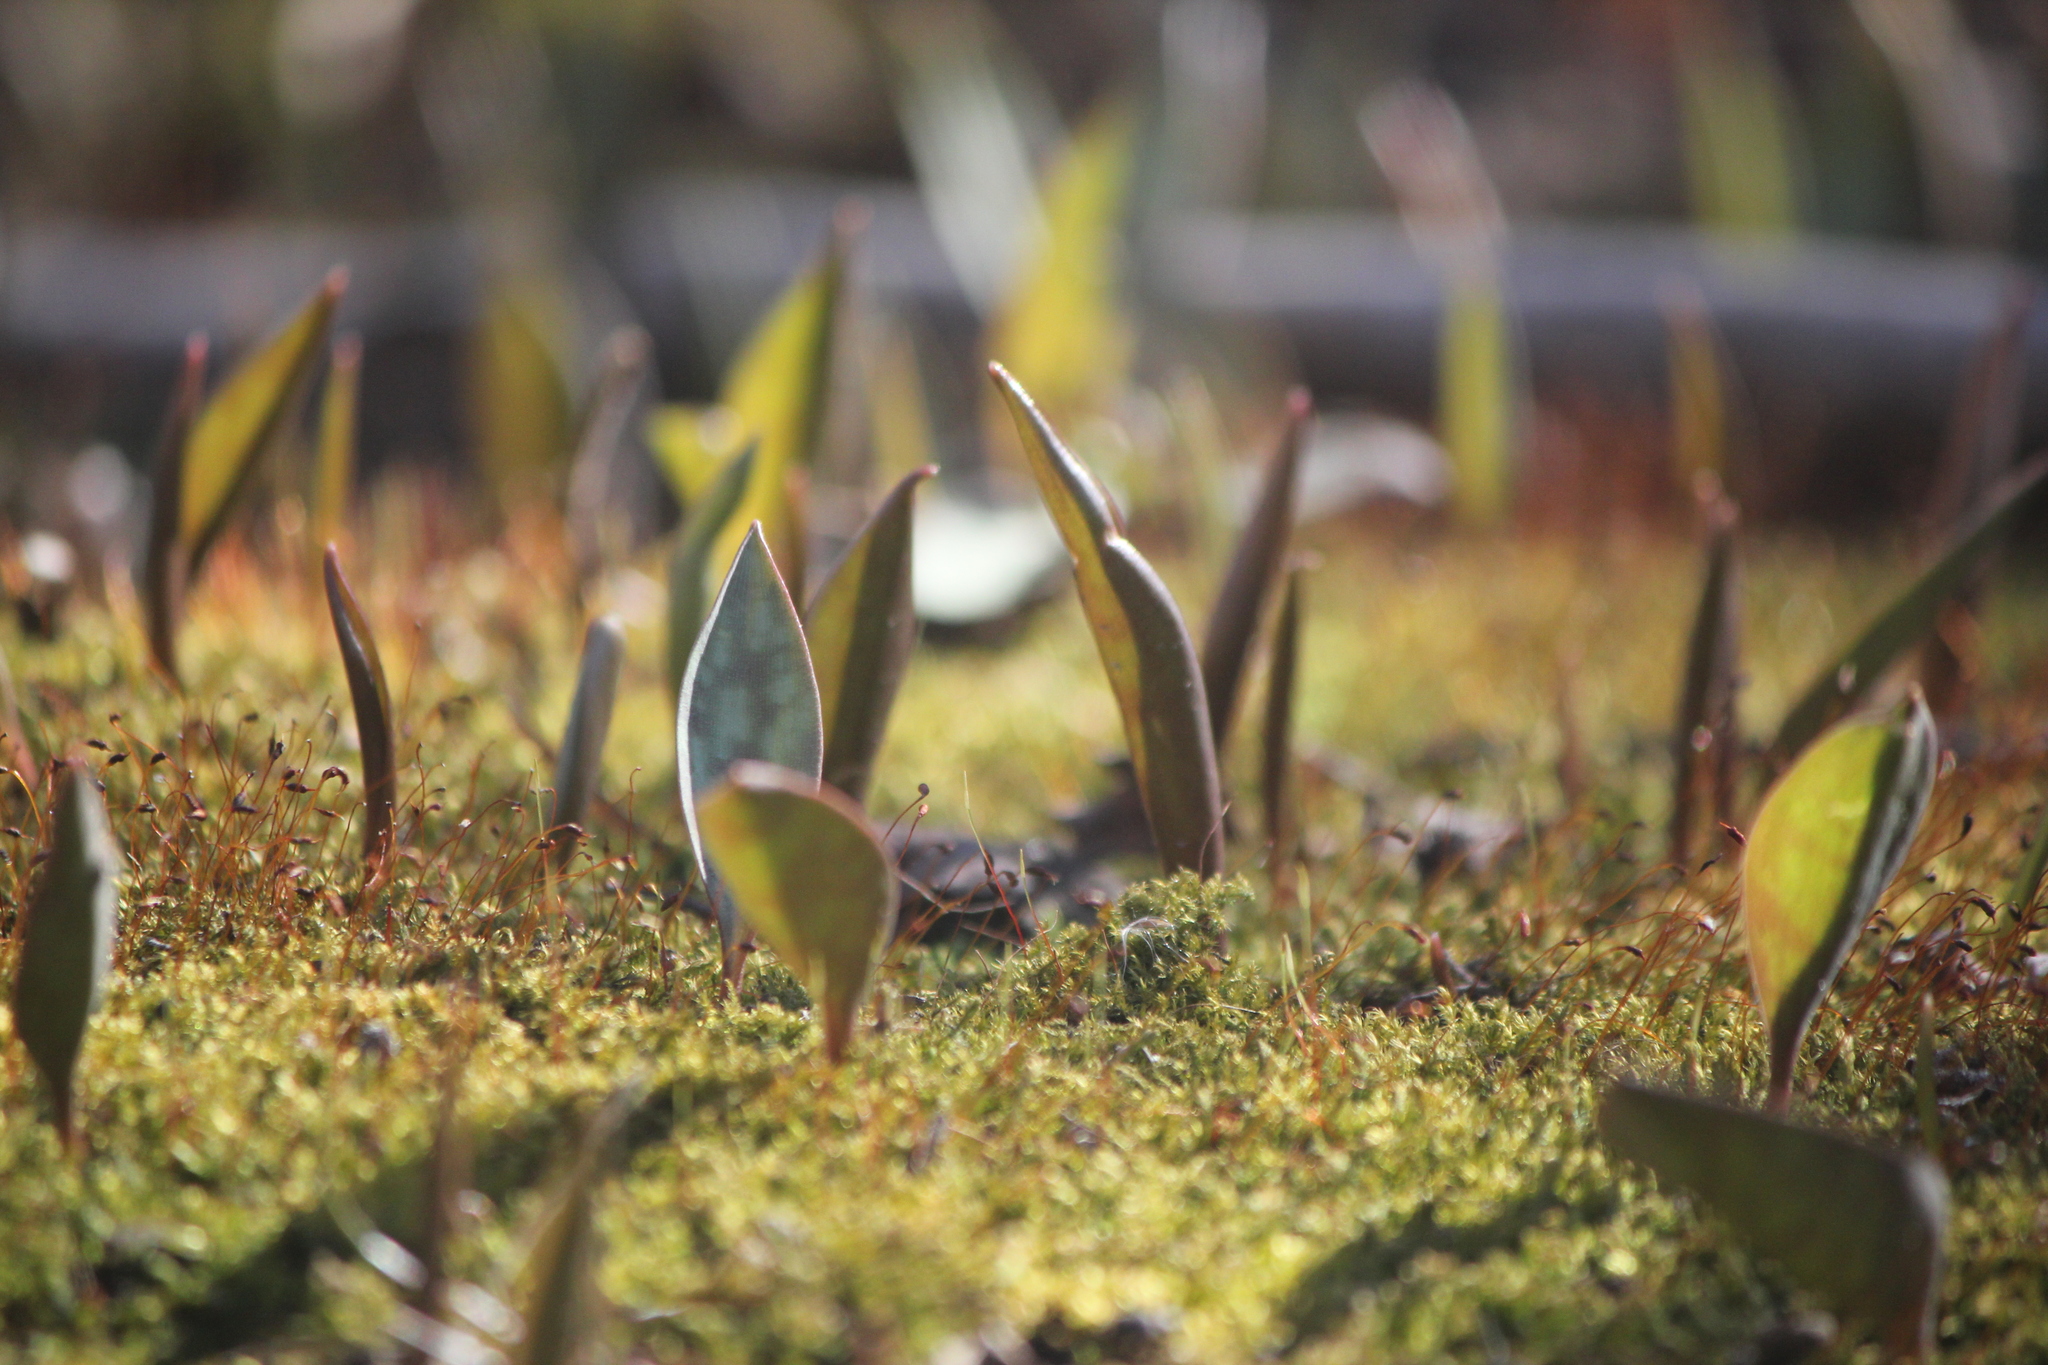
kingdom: Plantae
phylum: Tracheophyta
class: Liliopsida
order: Liliales
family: Liliaceae
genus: Erythronium
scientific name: Erythronium
